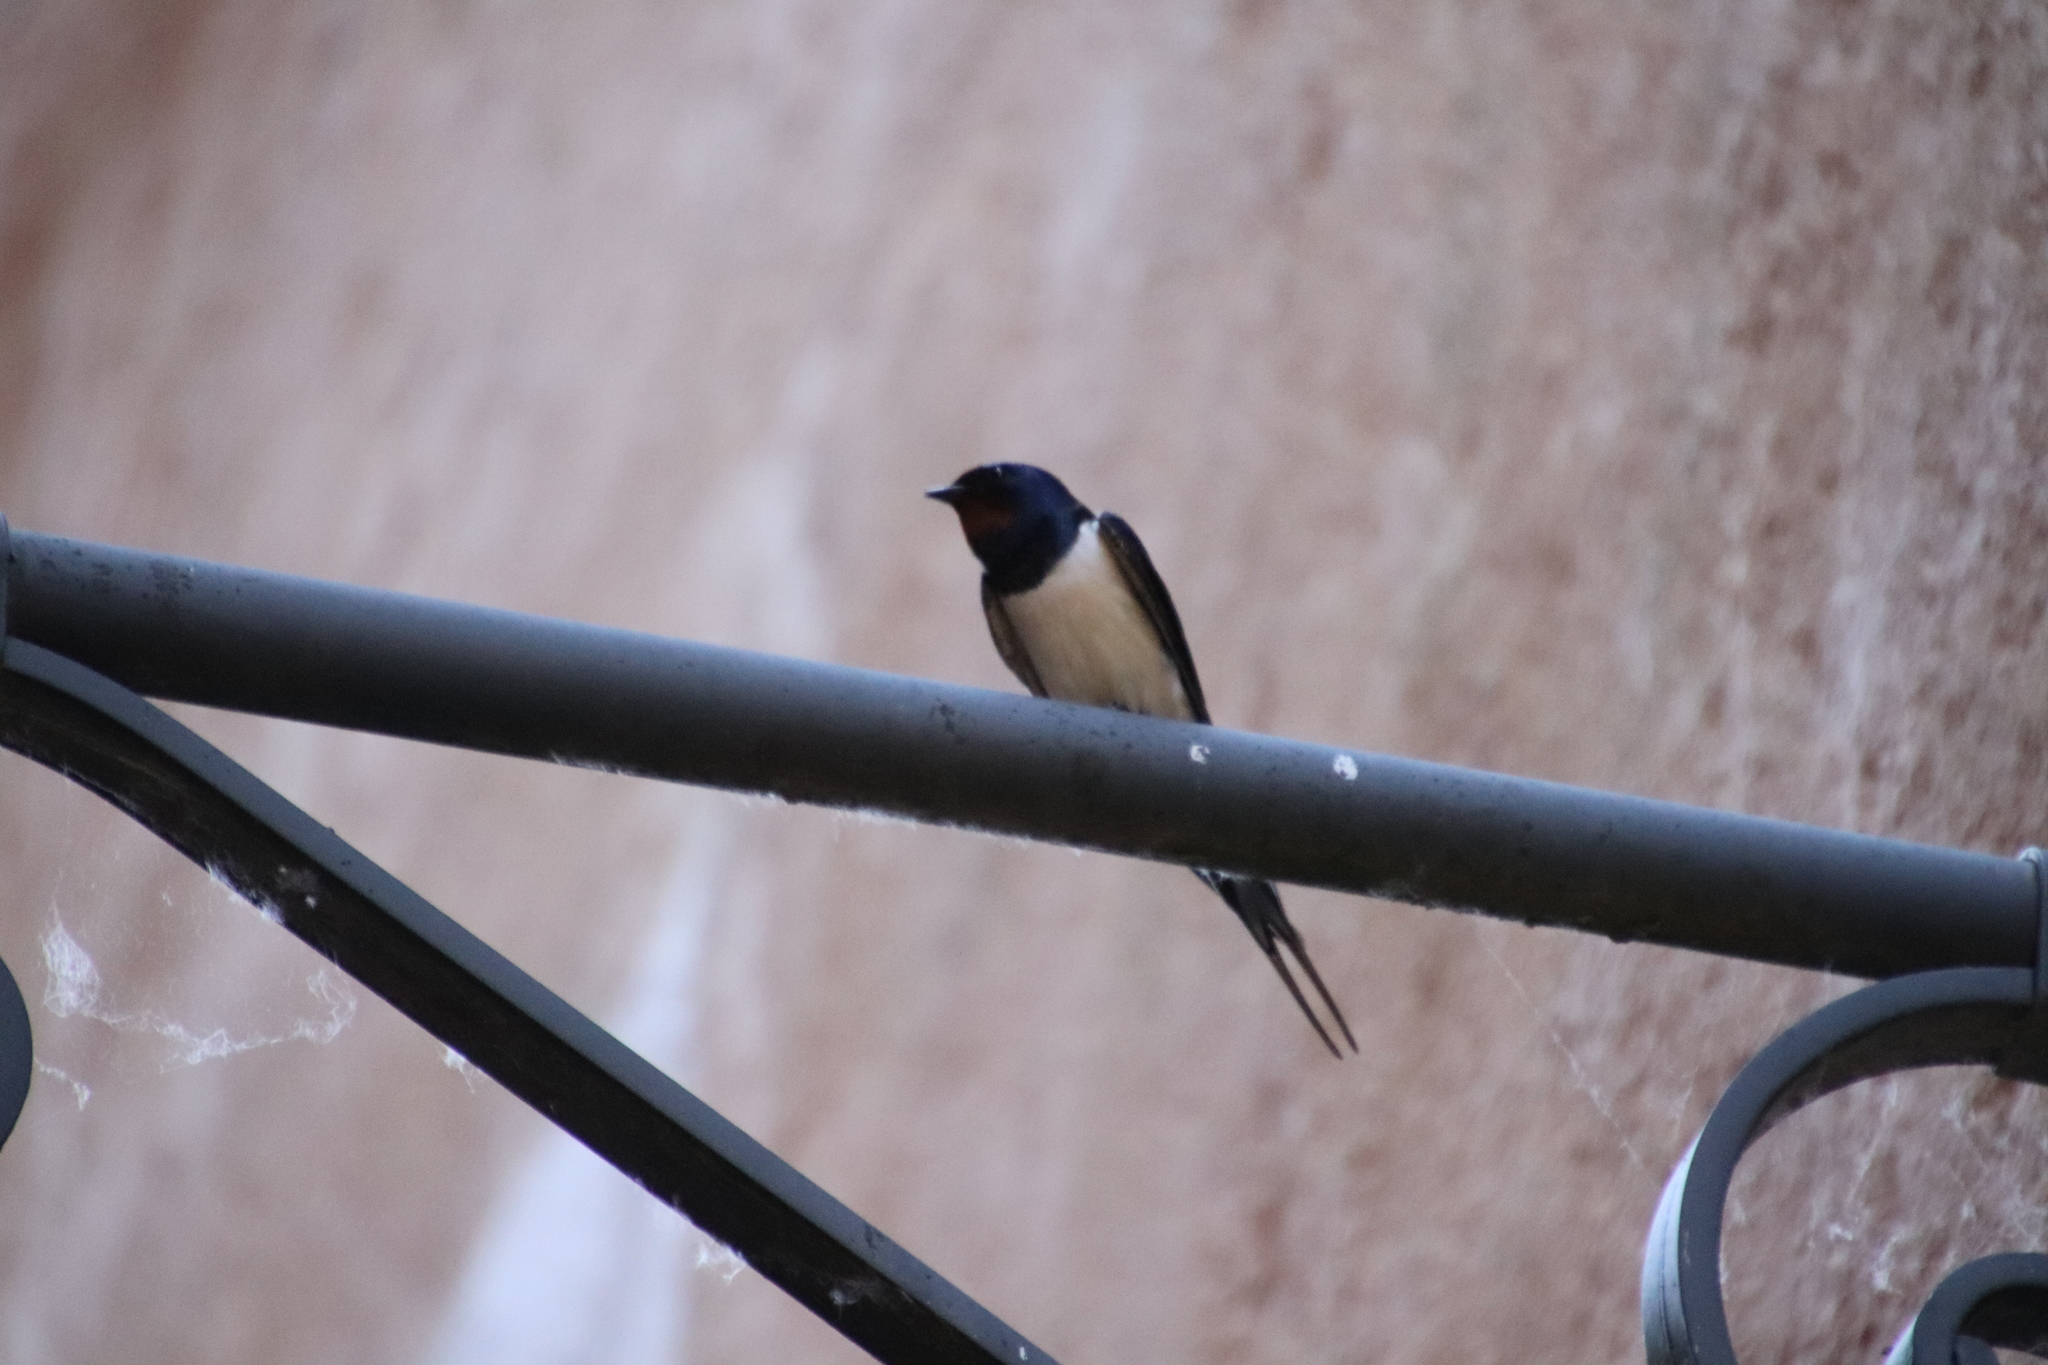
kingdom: Animalia
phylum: Chordata
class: Aves
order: Passeriformes
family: Hirundinidae
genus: Hirundo
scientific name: Hirundo rustica
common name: Barn swallow
